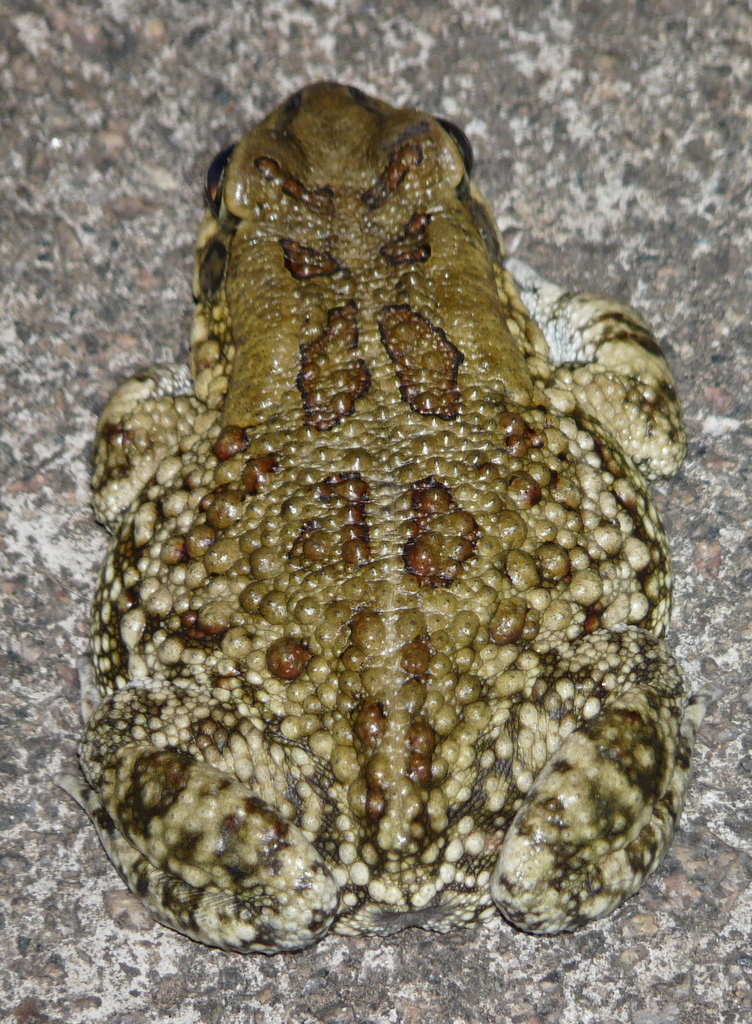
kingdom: Animalia
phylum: Chordata
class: Amphibia
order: Anura
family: Bufonidae
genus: Sclerophrys
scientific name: Sclerophrys garmani
